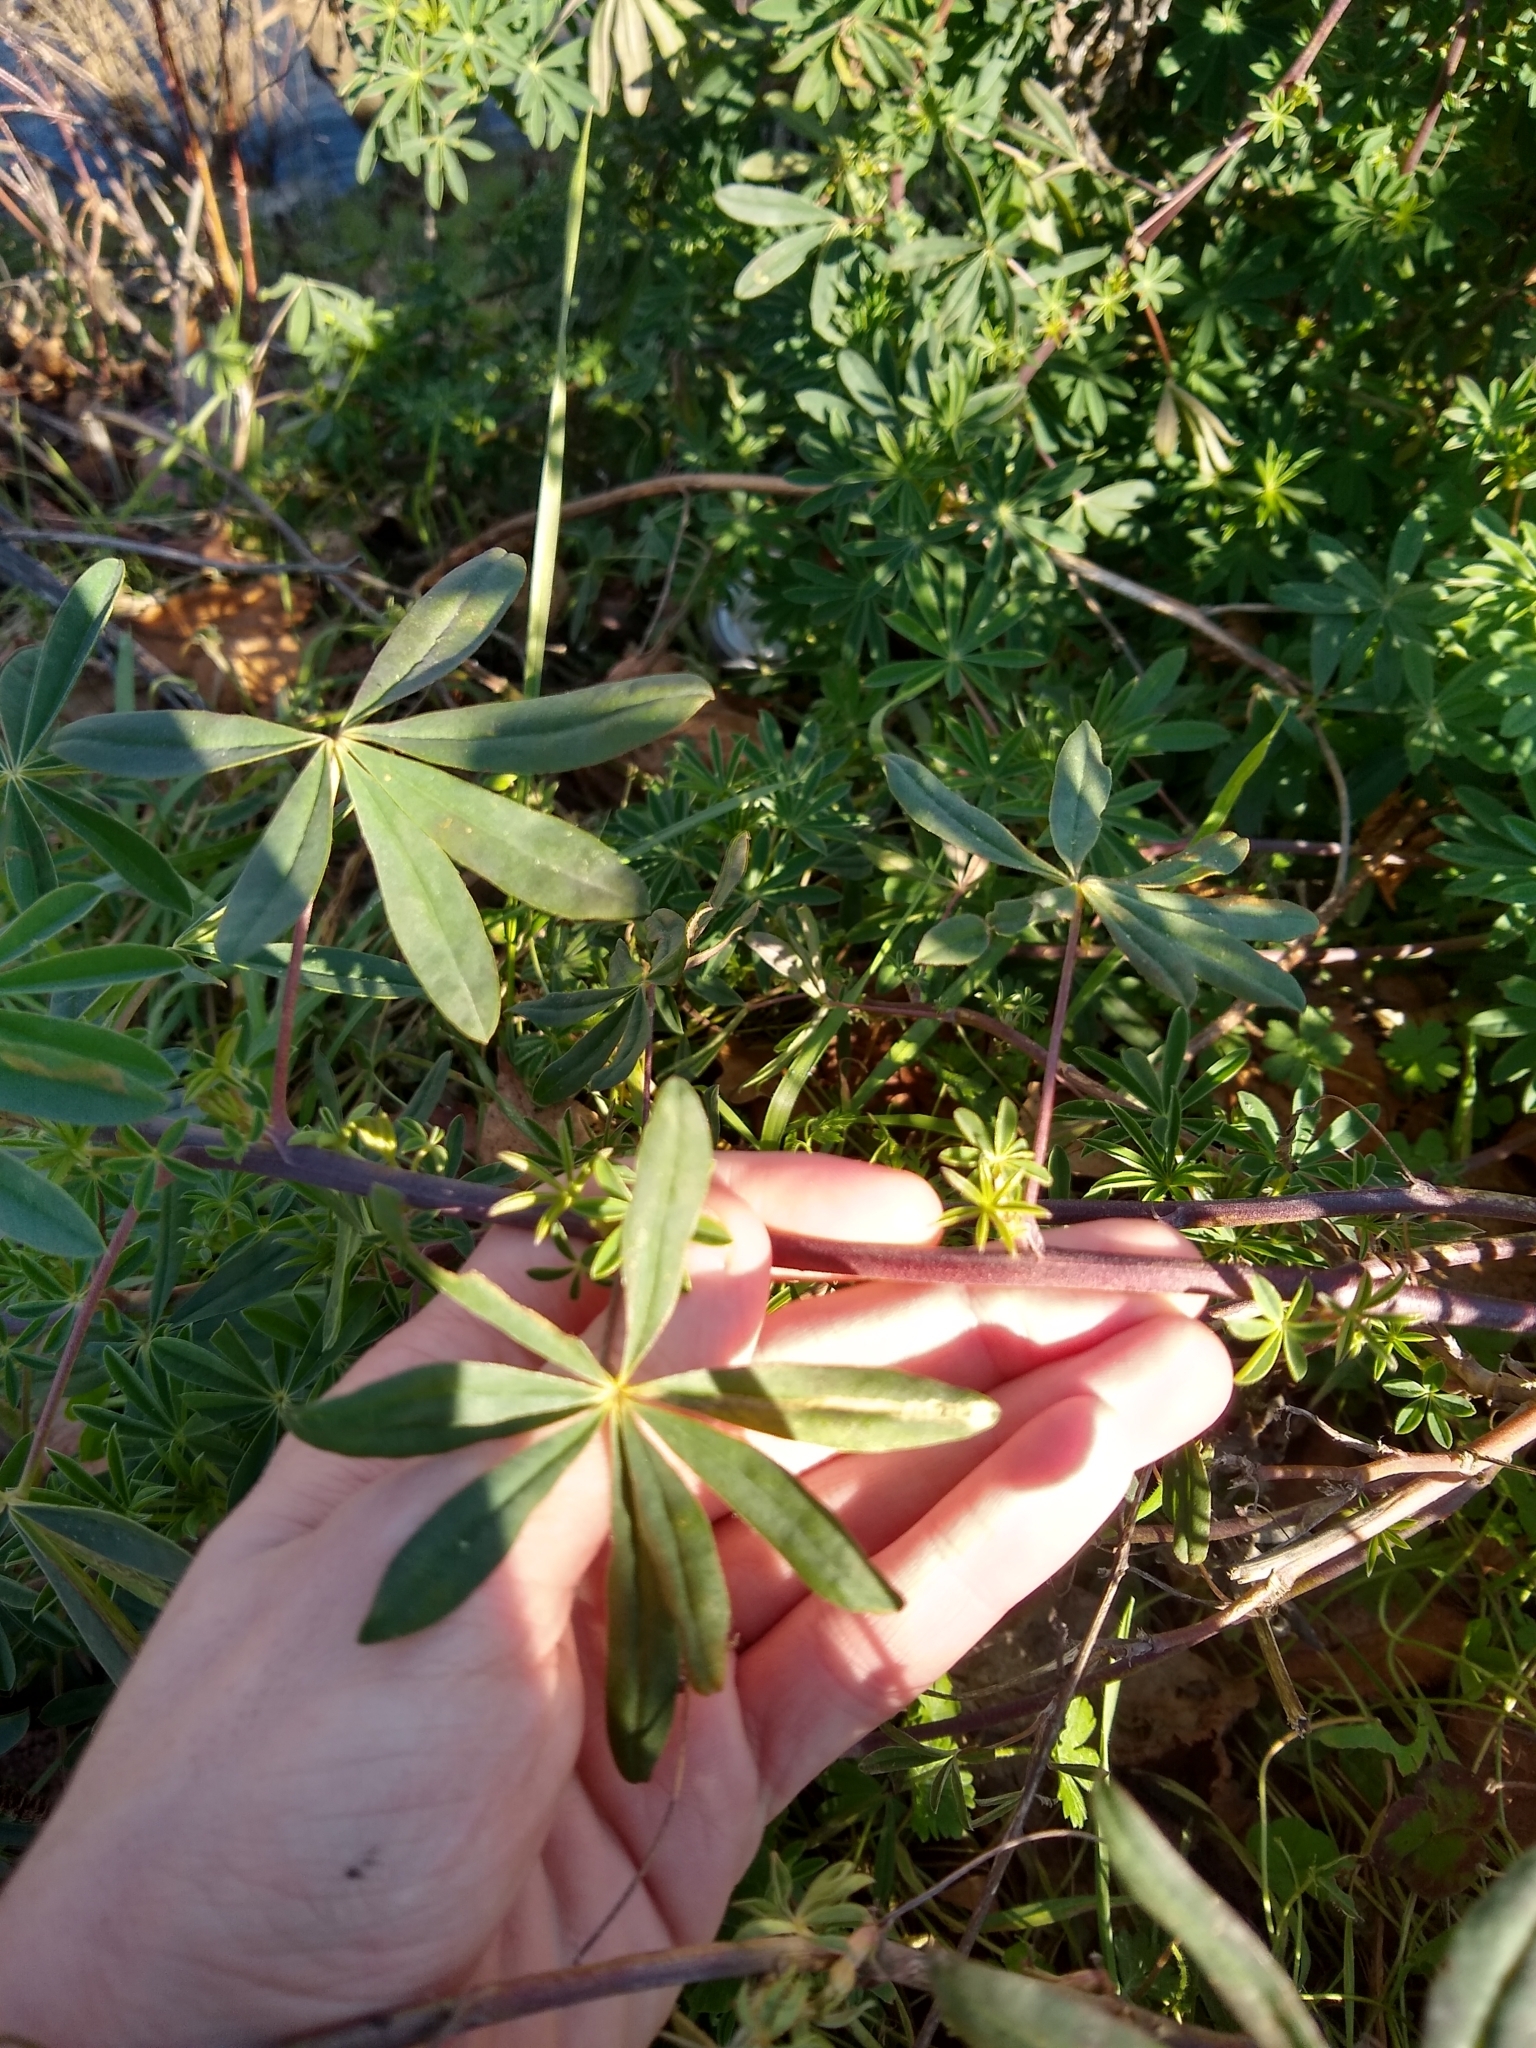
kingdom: Plantae
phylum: Tracheophyta
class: Magnoliopsida
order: Fabales
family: Fabaceae
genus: Lupinus
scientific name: Lupinus rivularis
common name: Riverbank lupine
